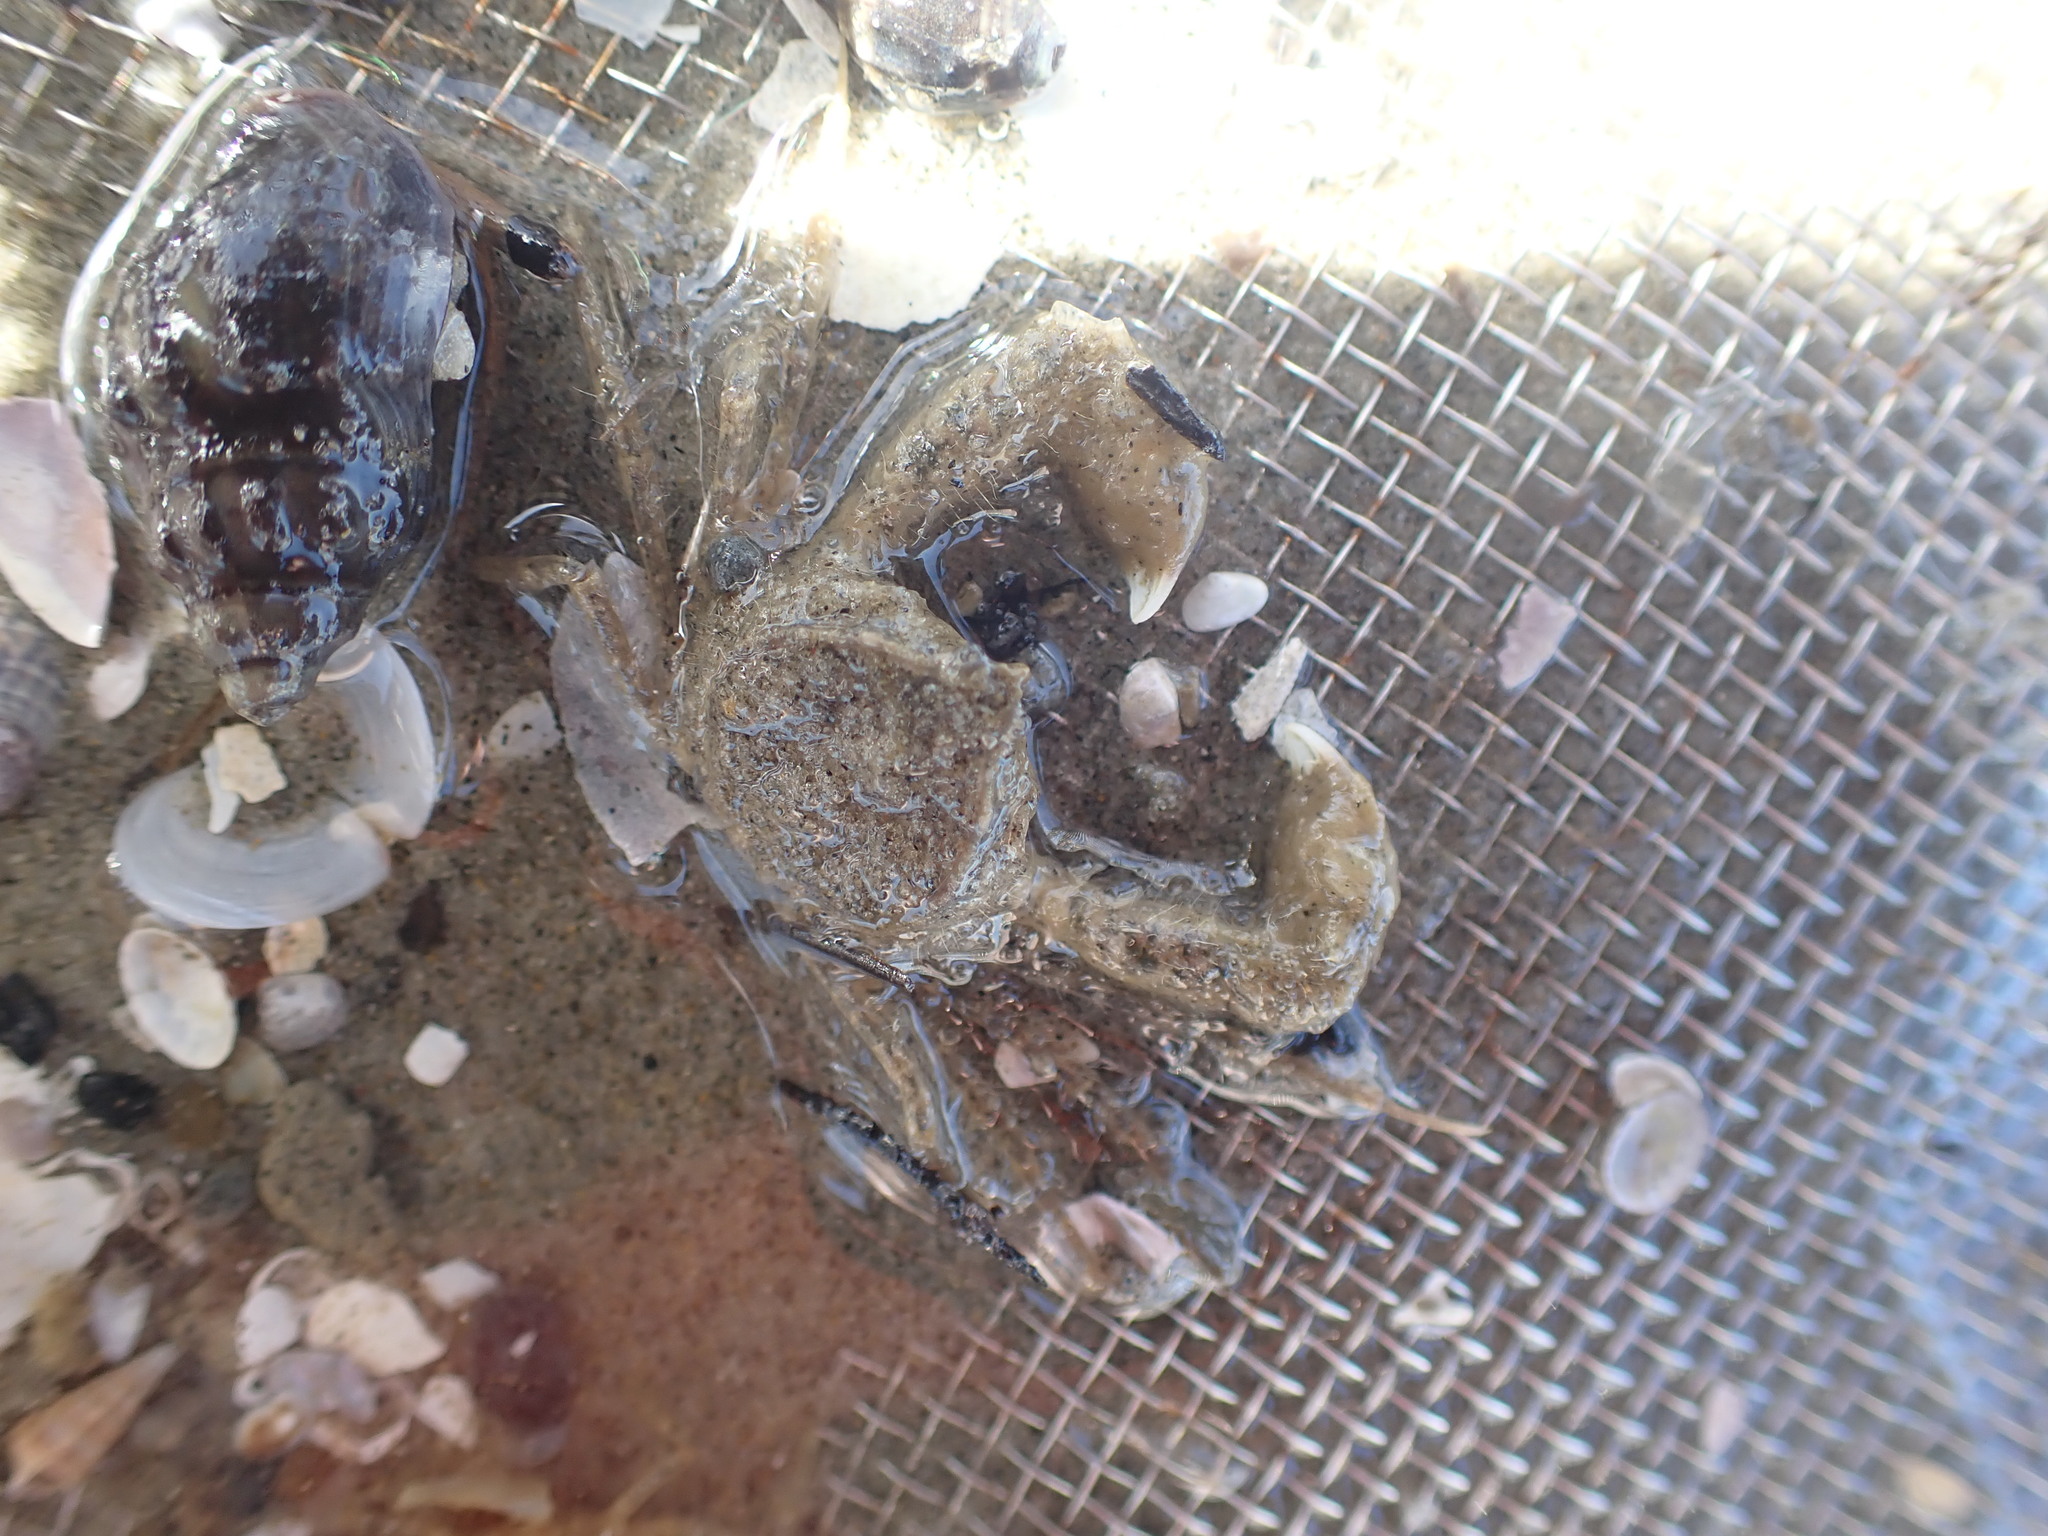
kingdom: Animalia
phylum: Arthropoda
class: Malacostraca
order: Decapoda
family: Hymenosomatidae
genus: Halicarcinus
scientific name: Halicarcinus whitei
